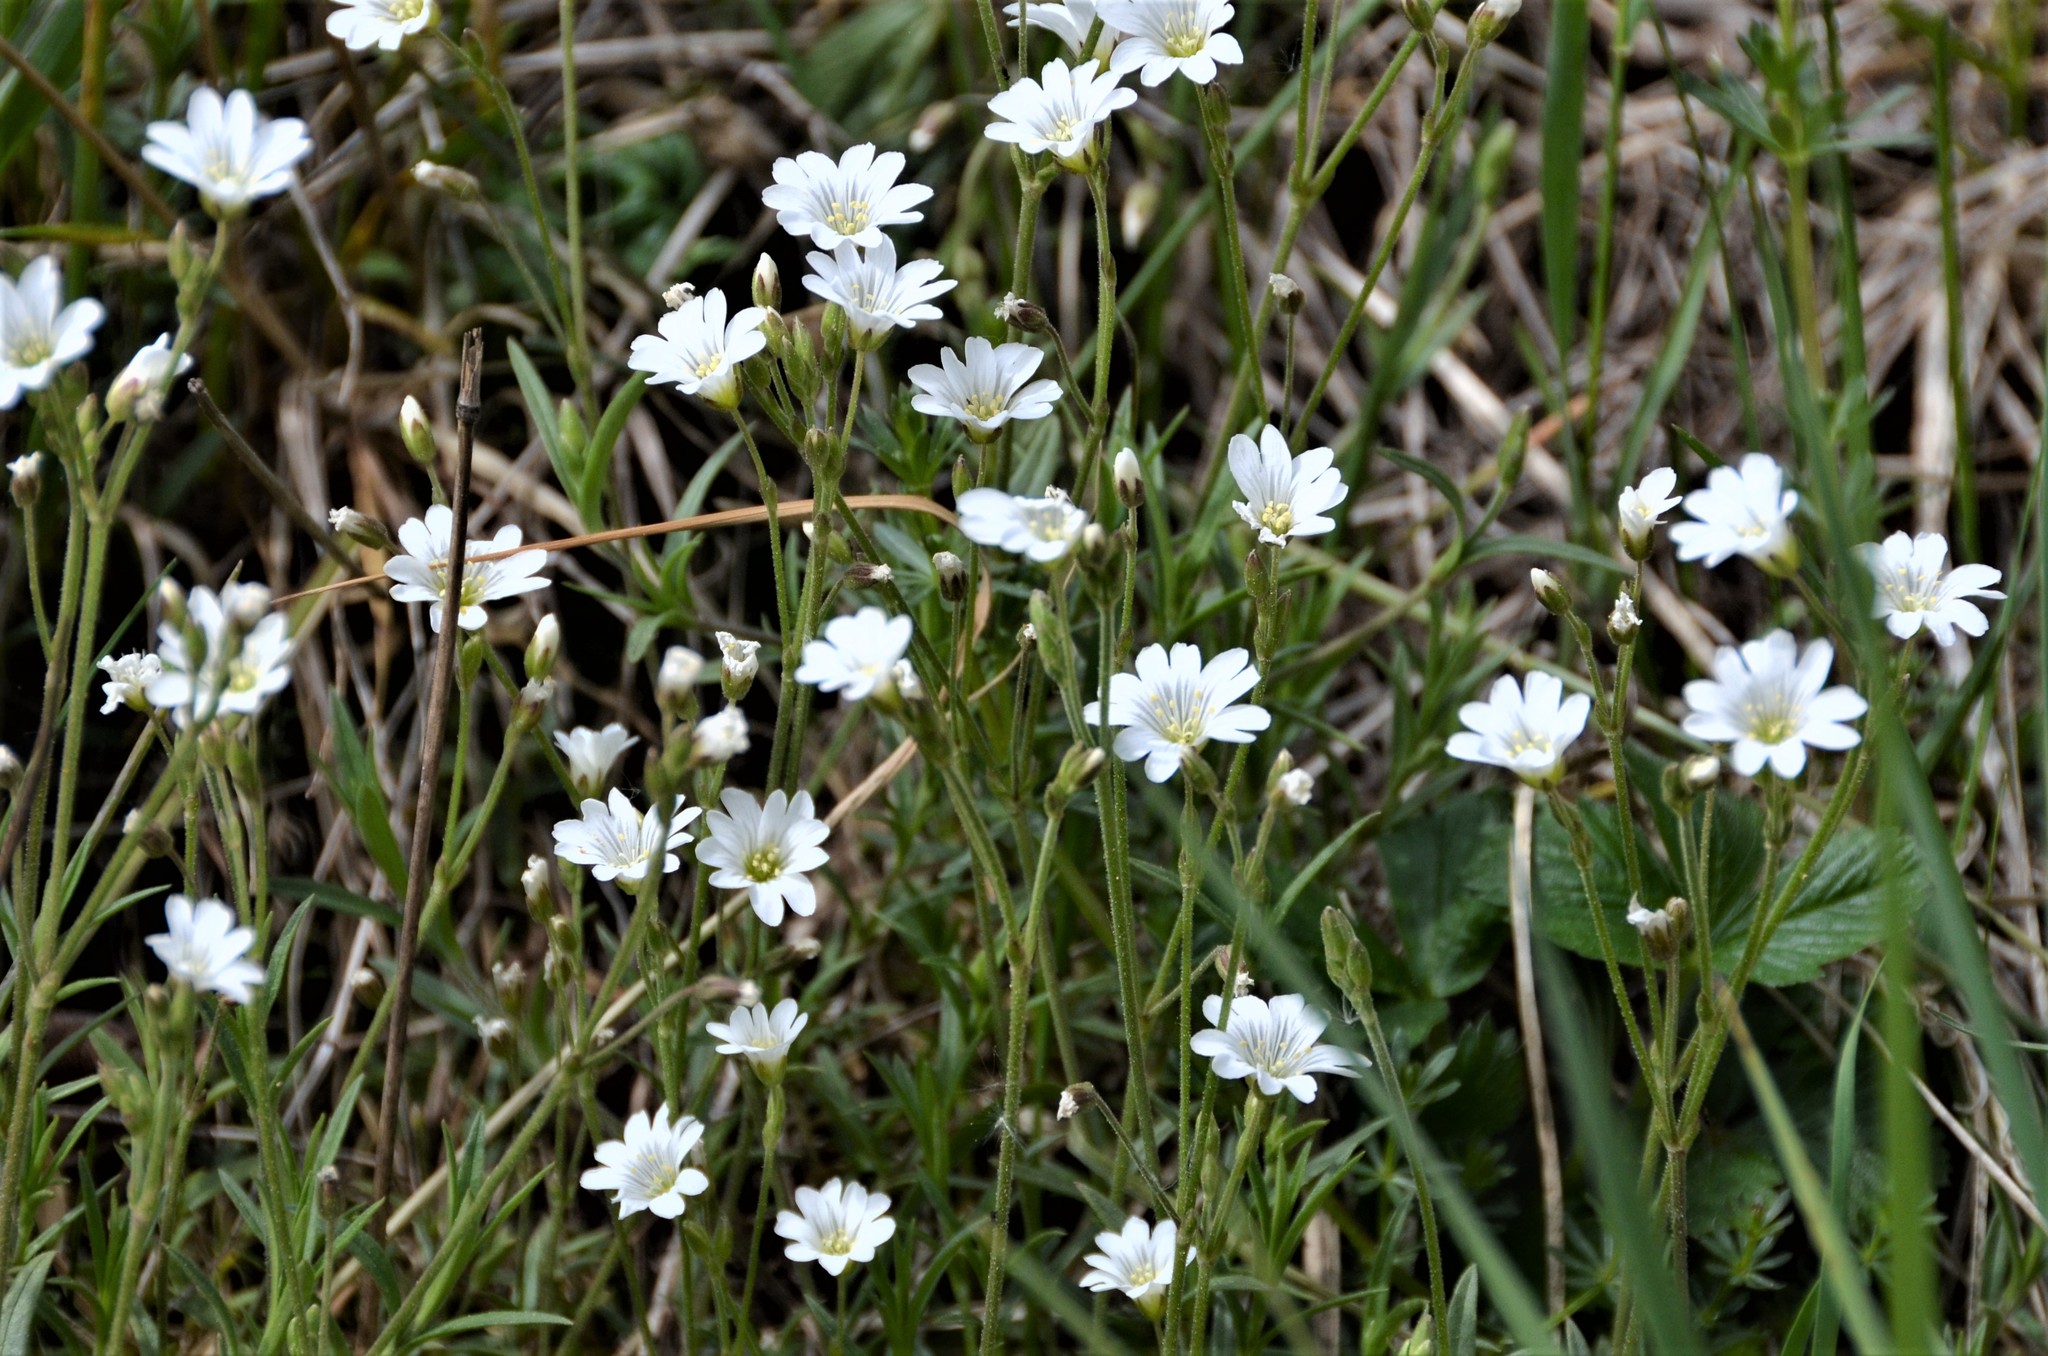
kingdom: Plantae
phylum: Tracheophyta
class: Magnoliopsida
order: Caryophyllales
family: Caryophyllaceae
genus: Cerastium
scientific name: Cerastium arvense
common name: Field mouse-ear
